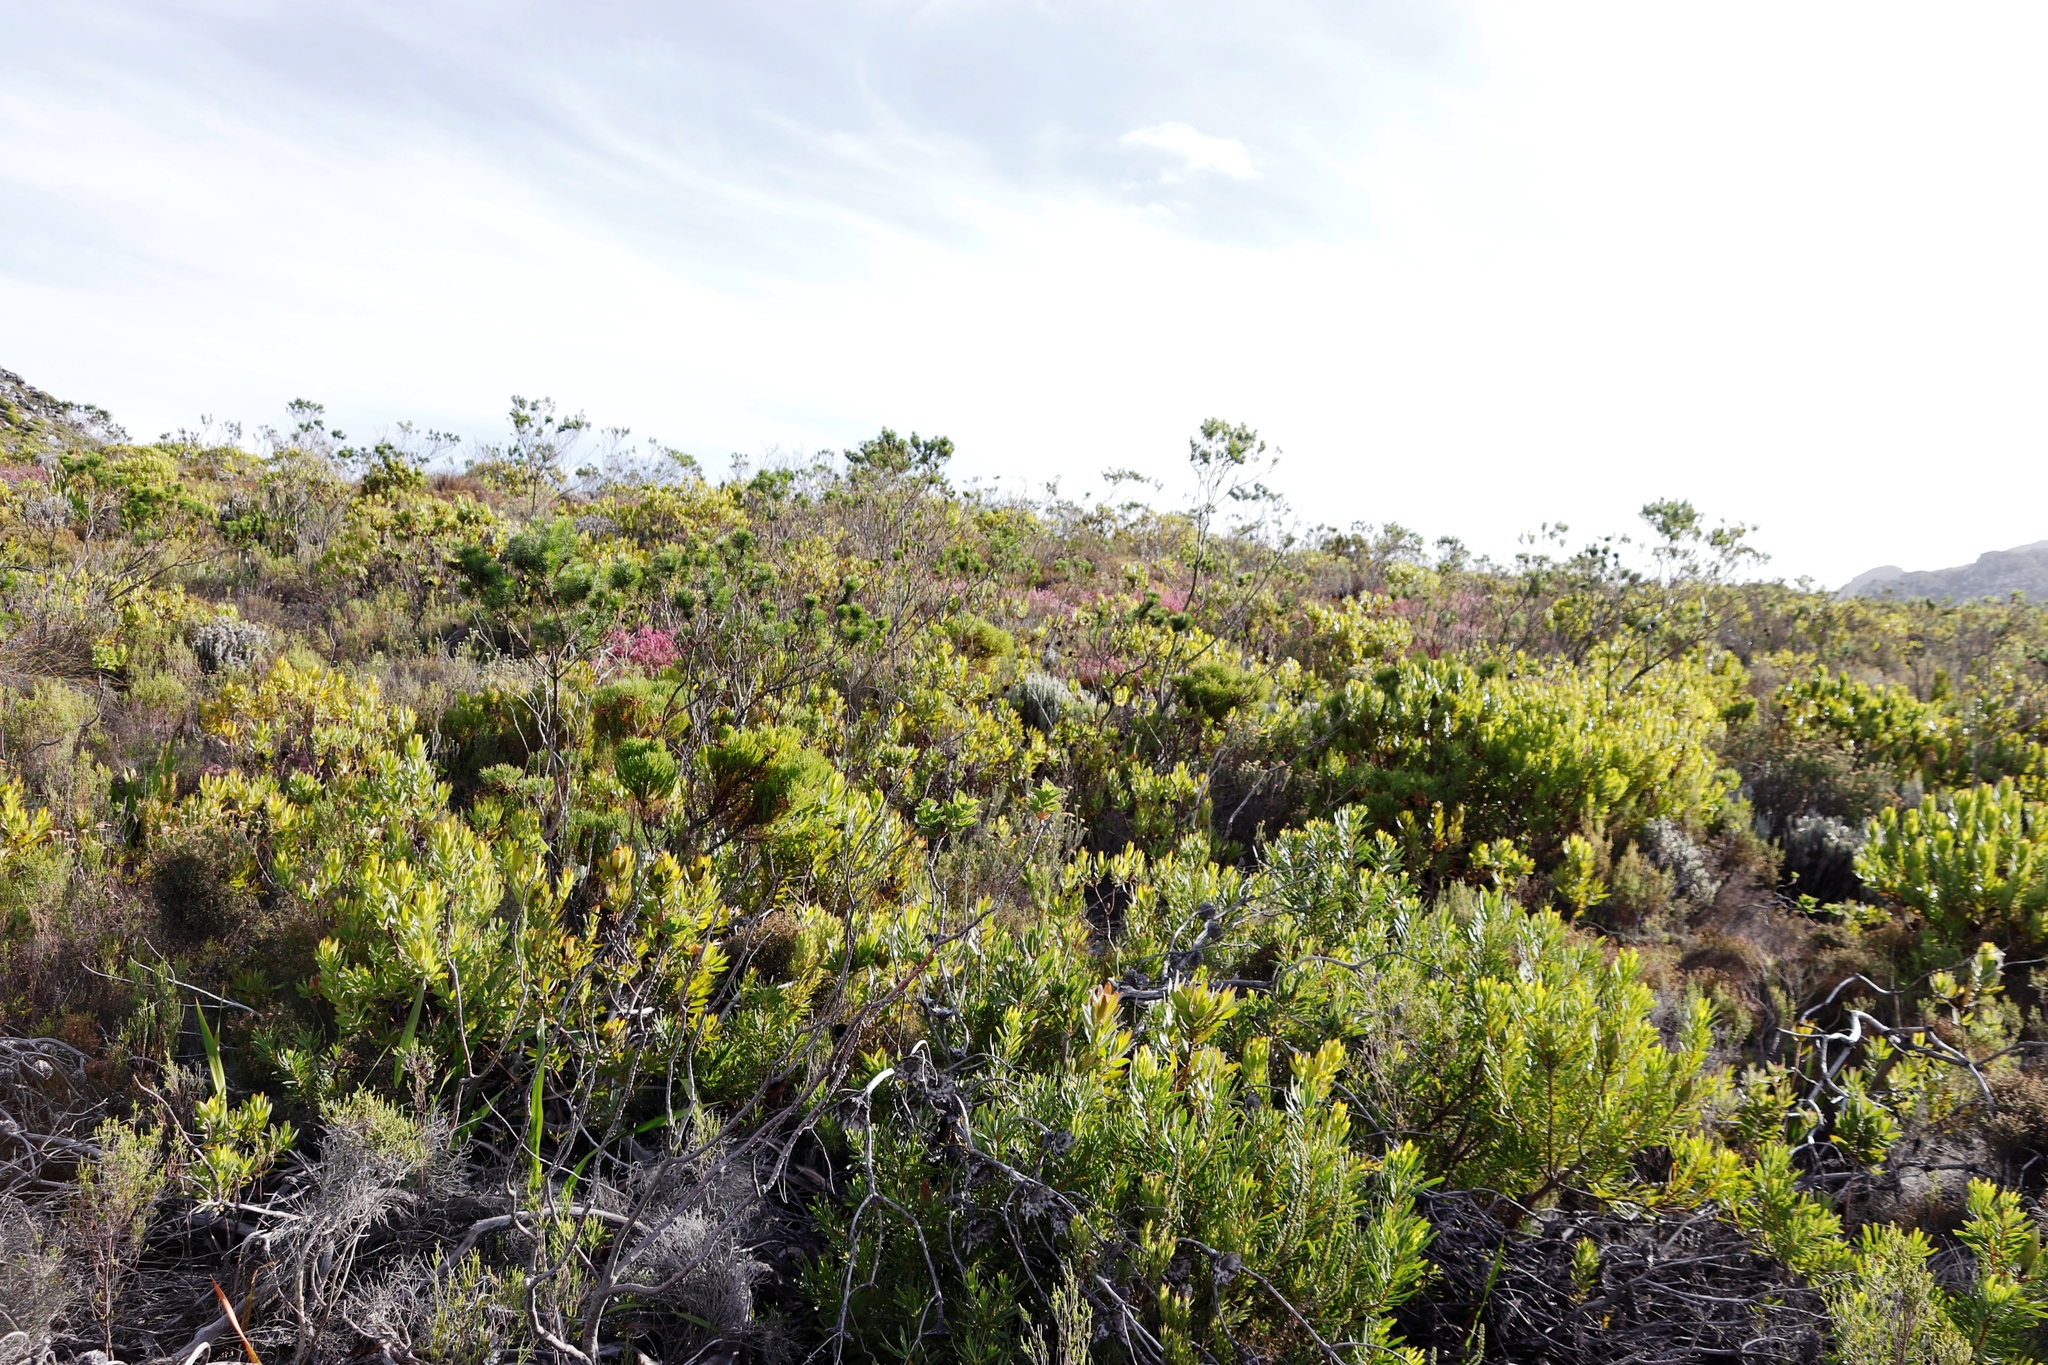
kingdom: Plantae
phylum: Tracheophyta
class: Magnoliopsida
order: Ericales
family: Ericaceae
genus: Erica
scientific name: Erica corifolia
